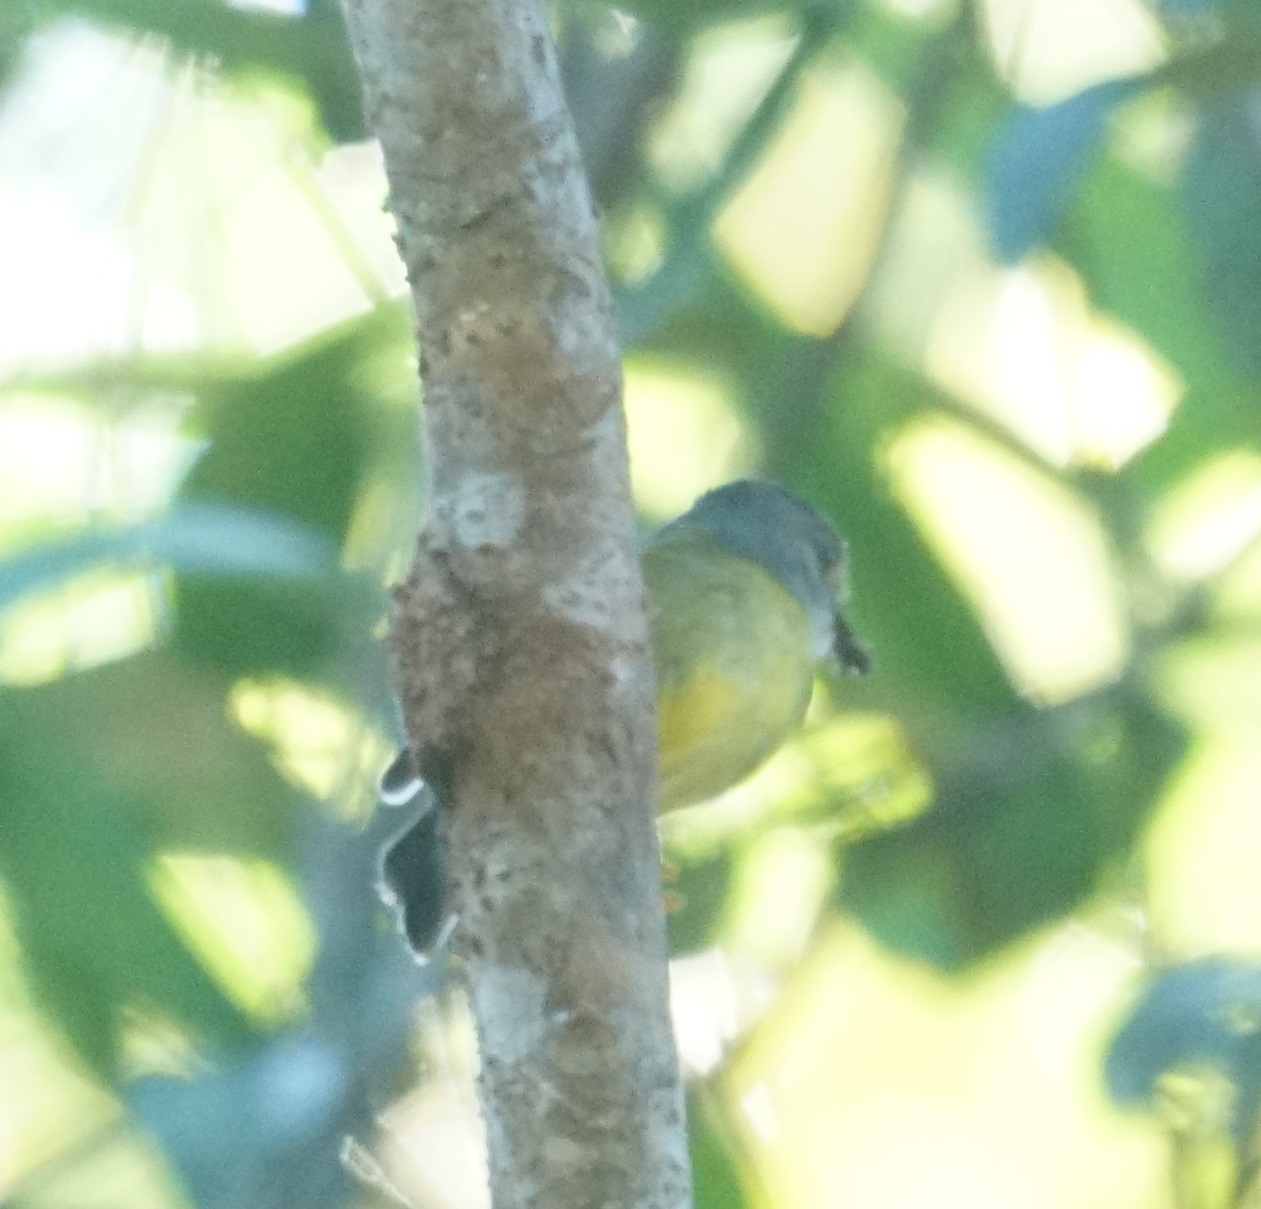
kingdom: Animalia
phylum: Chordata
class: Aves
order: Passeriformes
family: Petroicidae
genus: Eopsaltria
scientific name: Eopsaltria
